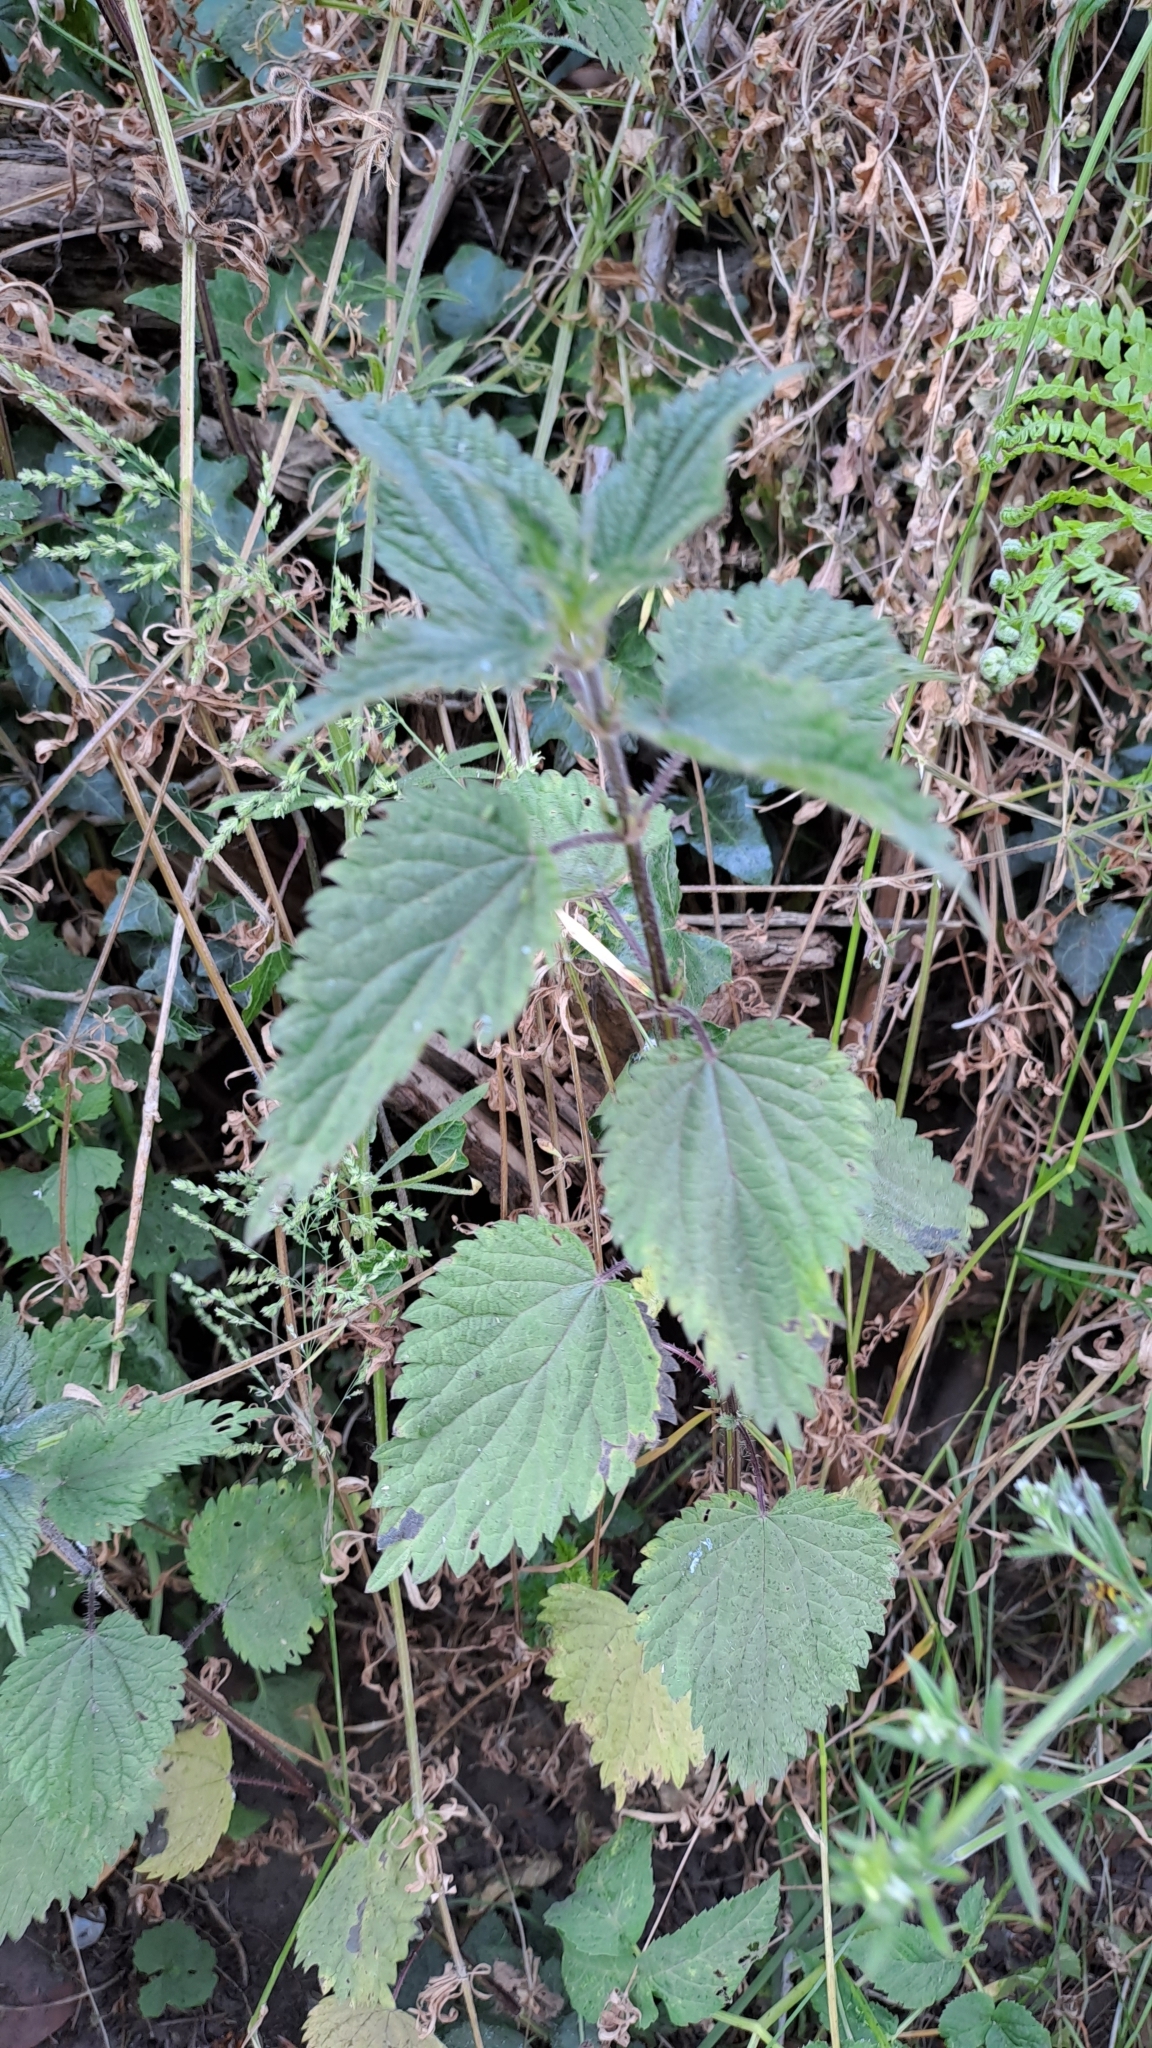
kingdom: Plantae
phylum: Tracheophyta
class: Magnoliopsida
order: Rosales
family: Urticaceae
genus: Urtica
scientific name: Urtica dioica
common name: Common nettle
